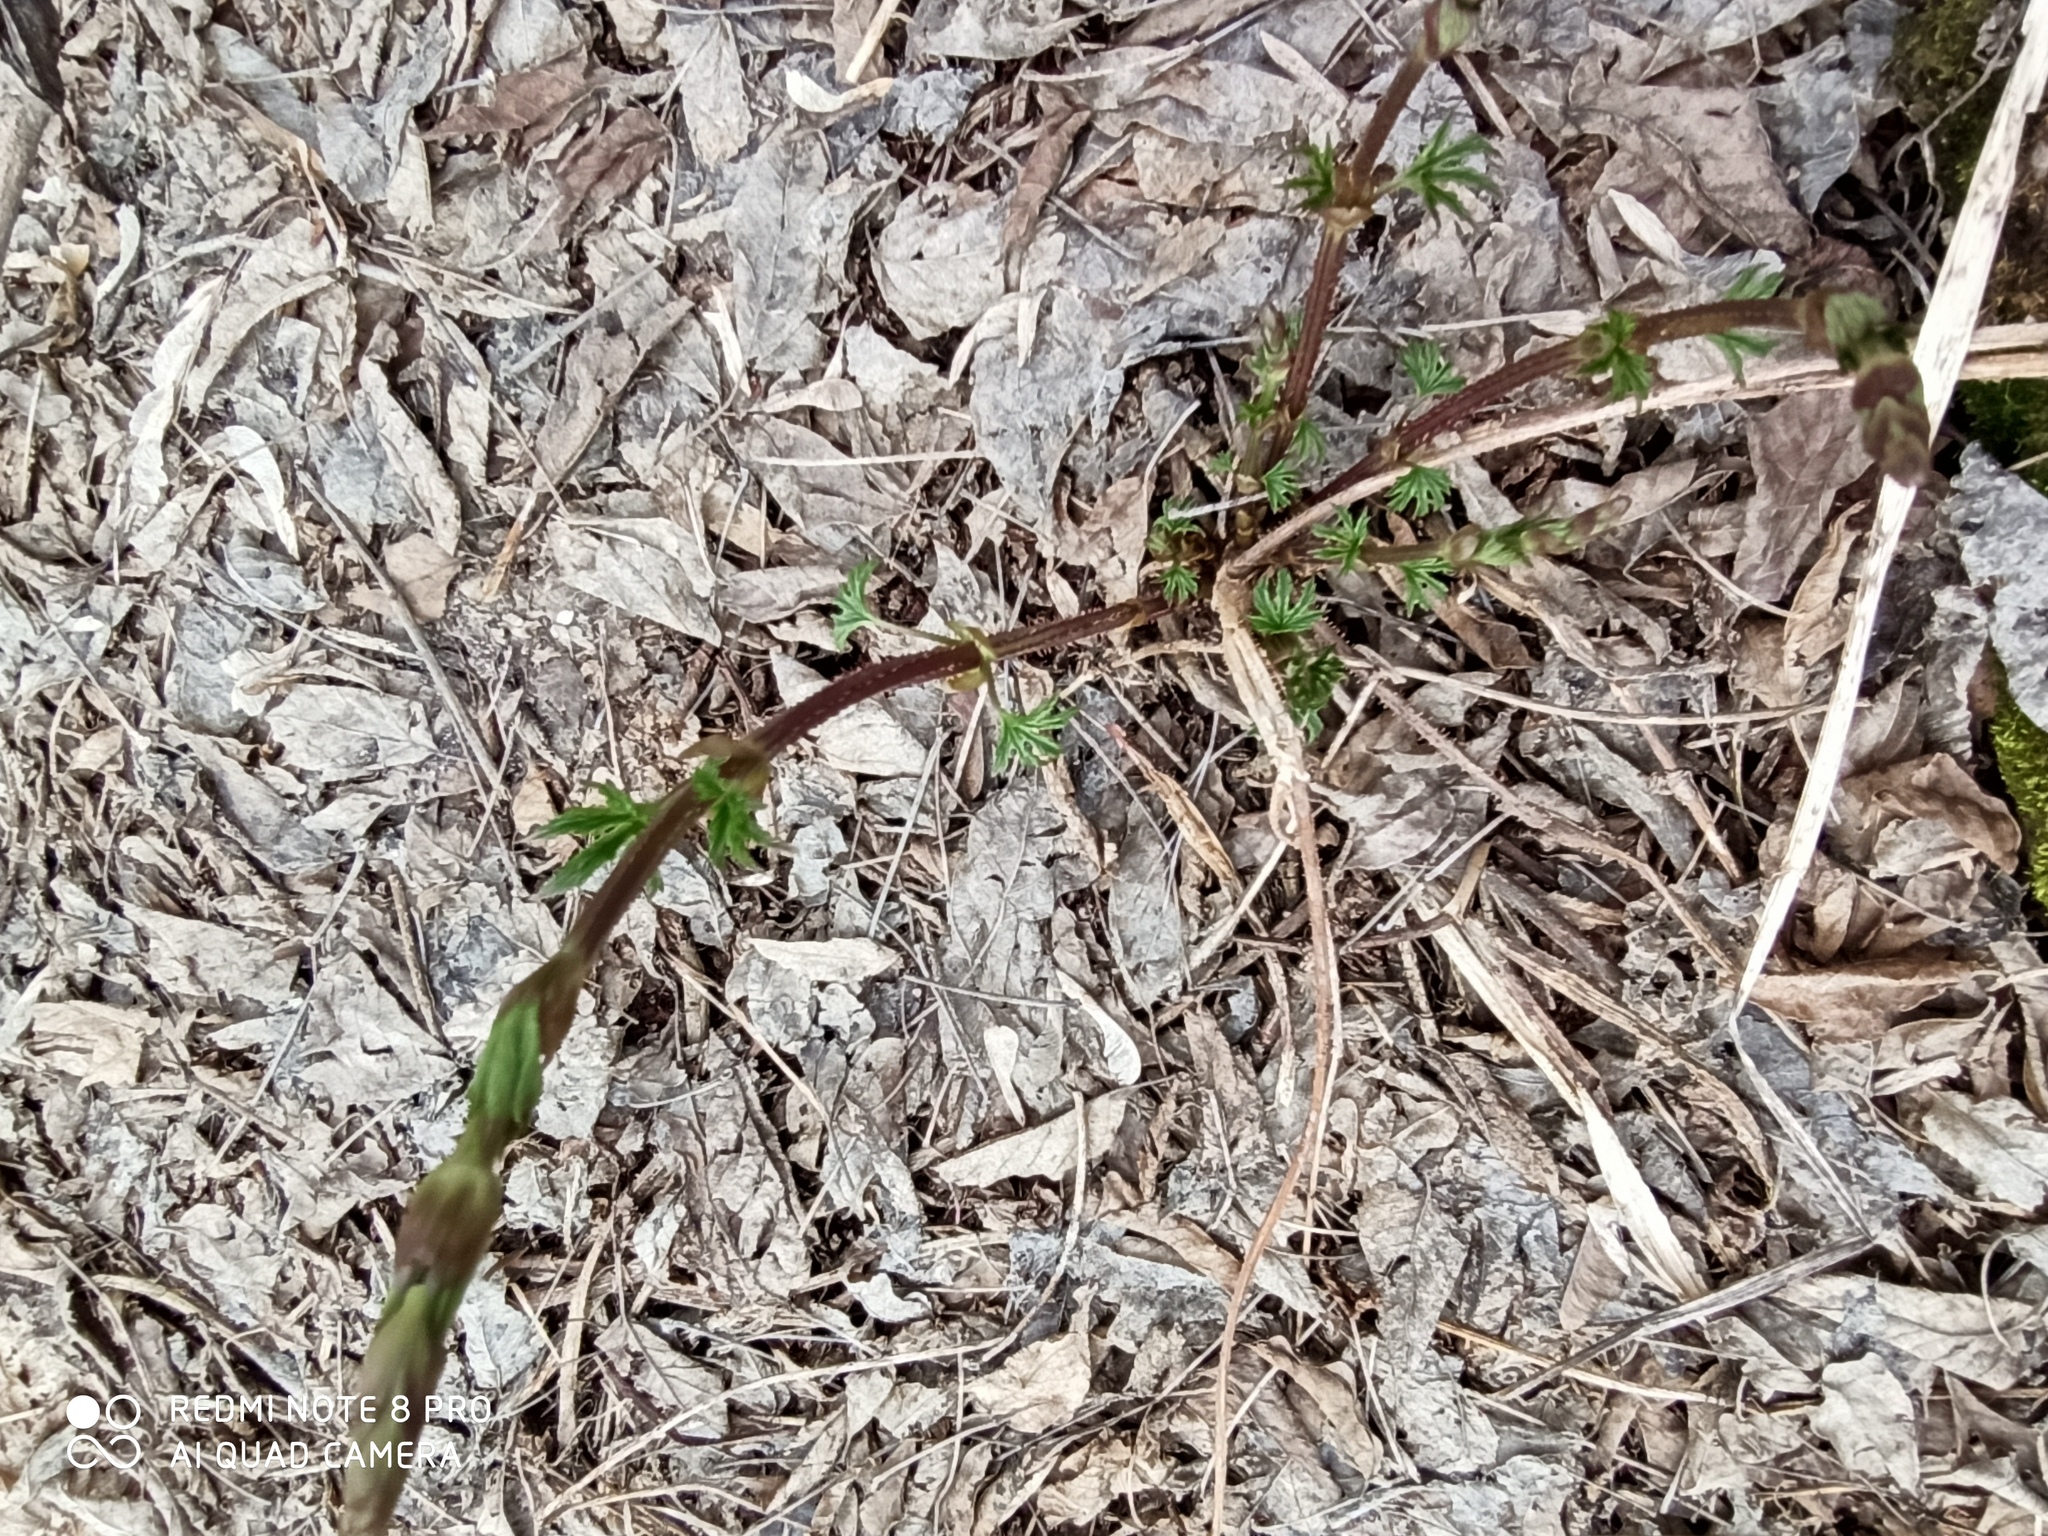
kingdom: Plantae
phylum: Tracheophyta
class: Magnoliopsida
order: Rosales
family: Cannabaceae
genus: Humulus
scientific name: Humulus lupulus
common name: Hop
